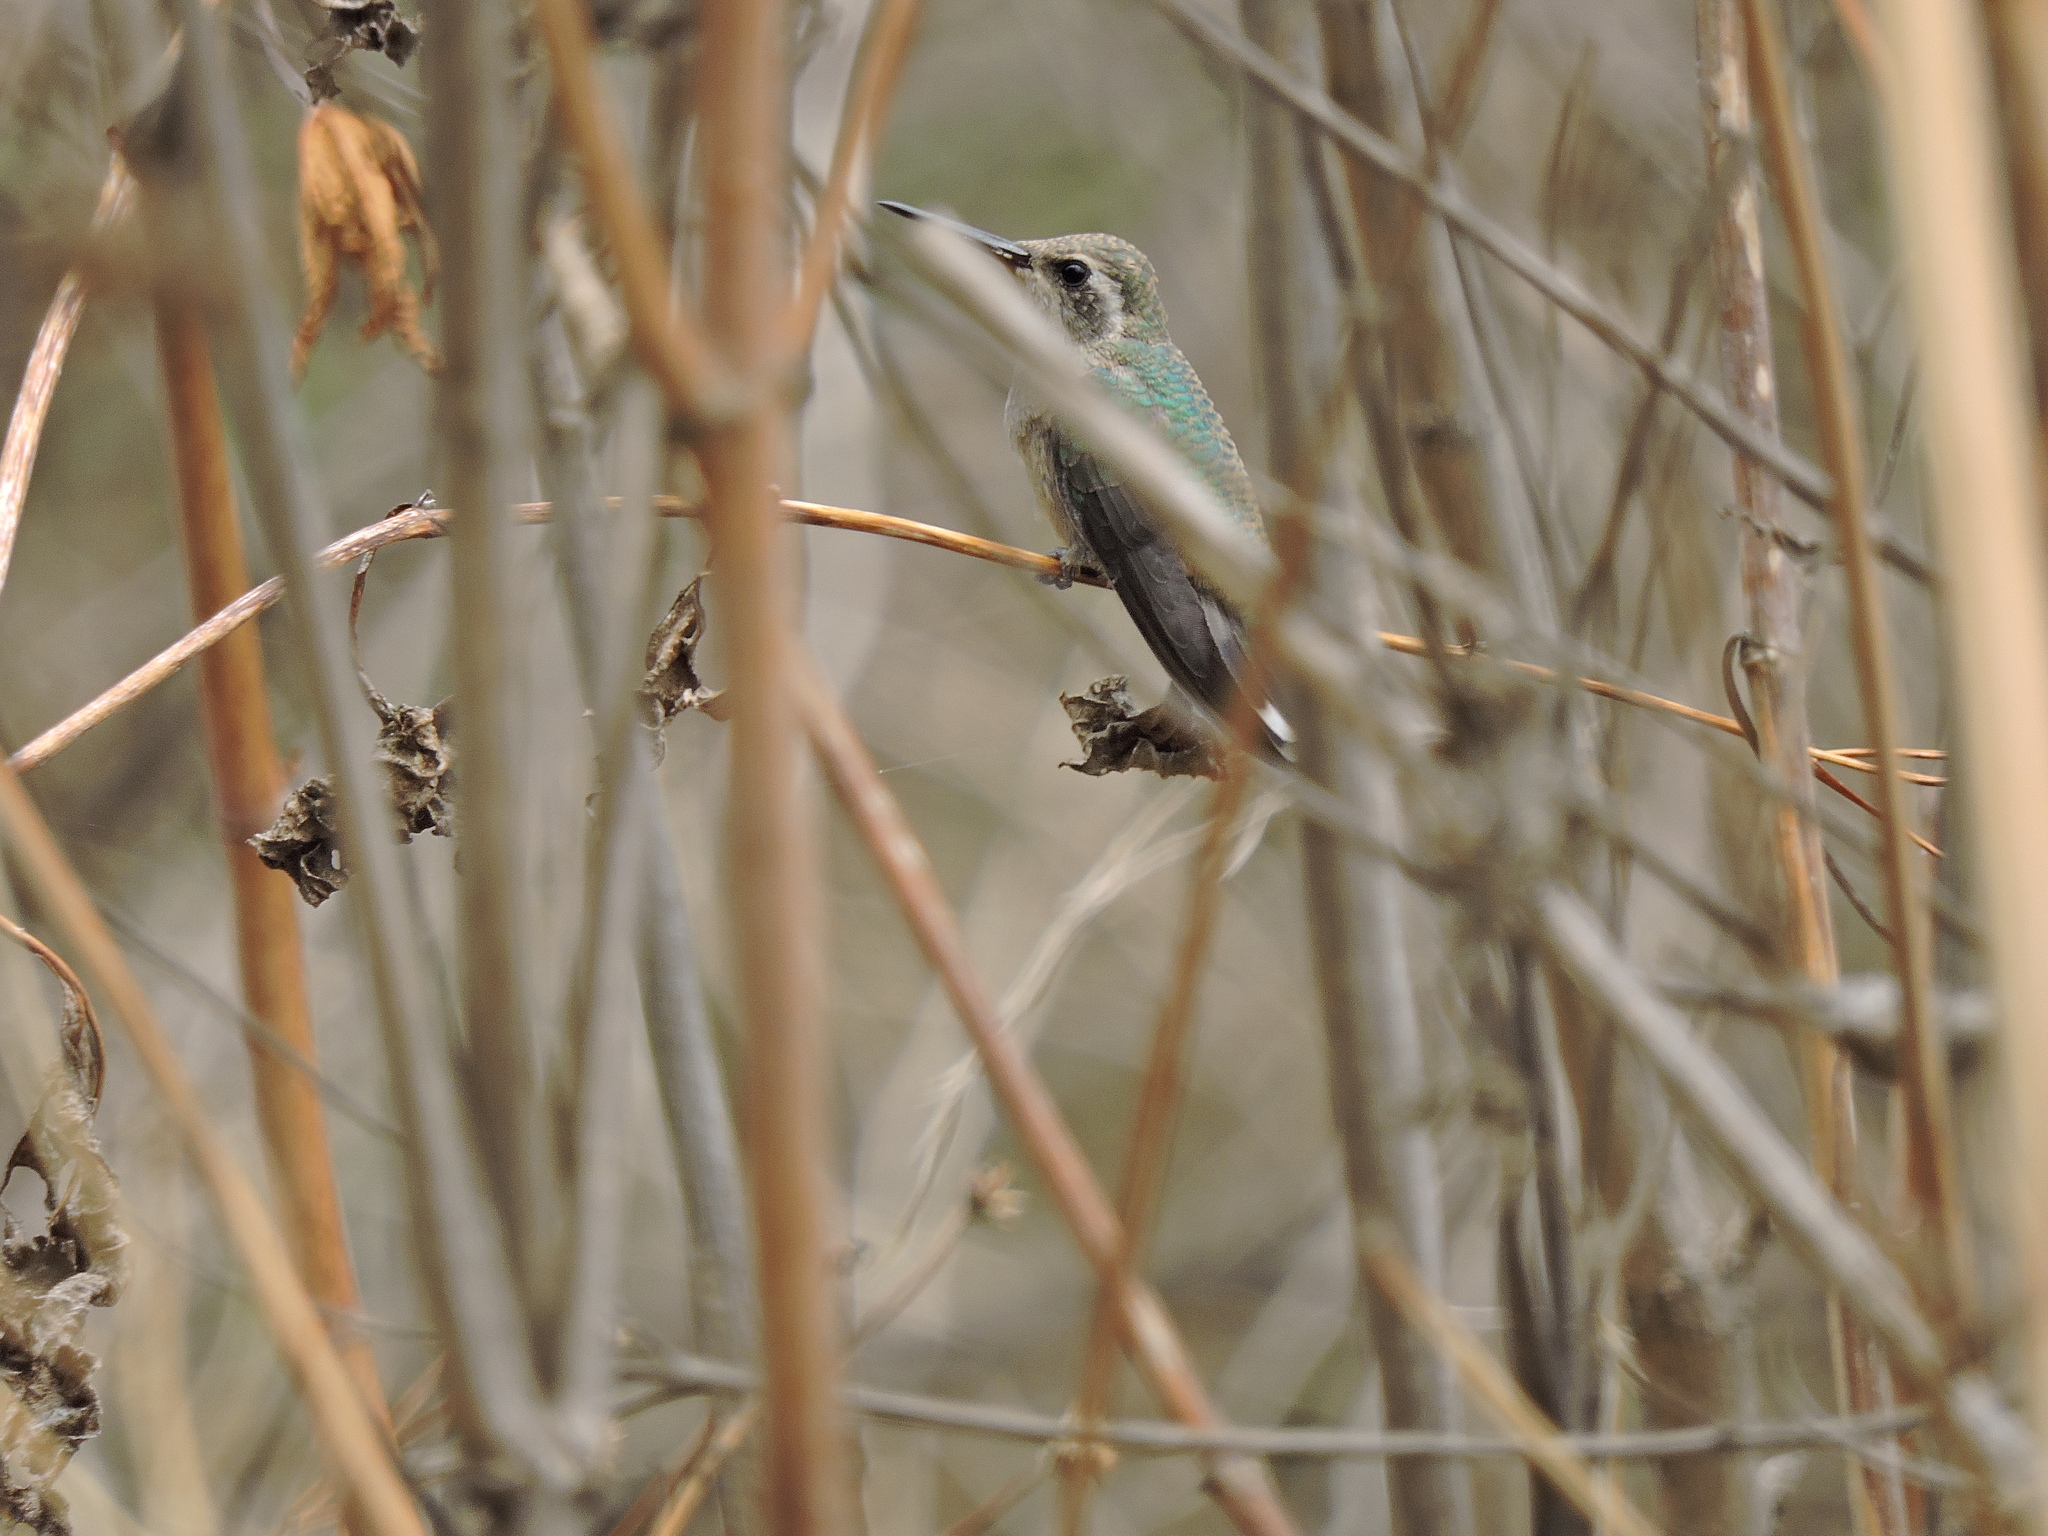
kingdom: Animalia
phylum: Chordata
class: Aves
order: Apodiformes
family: Trochilidae
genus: Lampornis
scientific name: Lampornis clemenciae
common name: Blue-throated mountaingem
